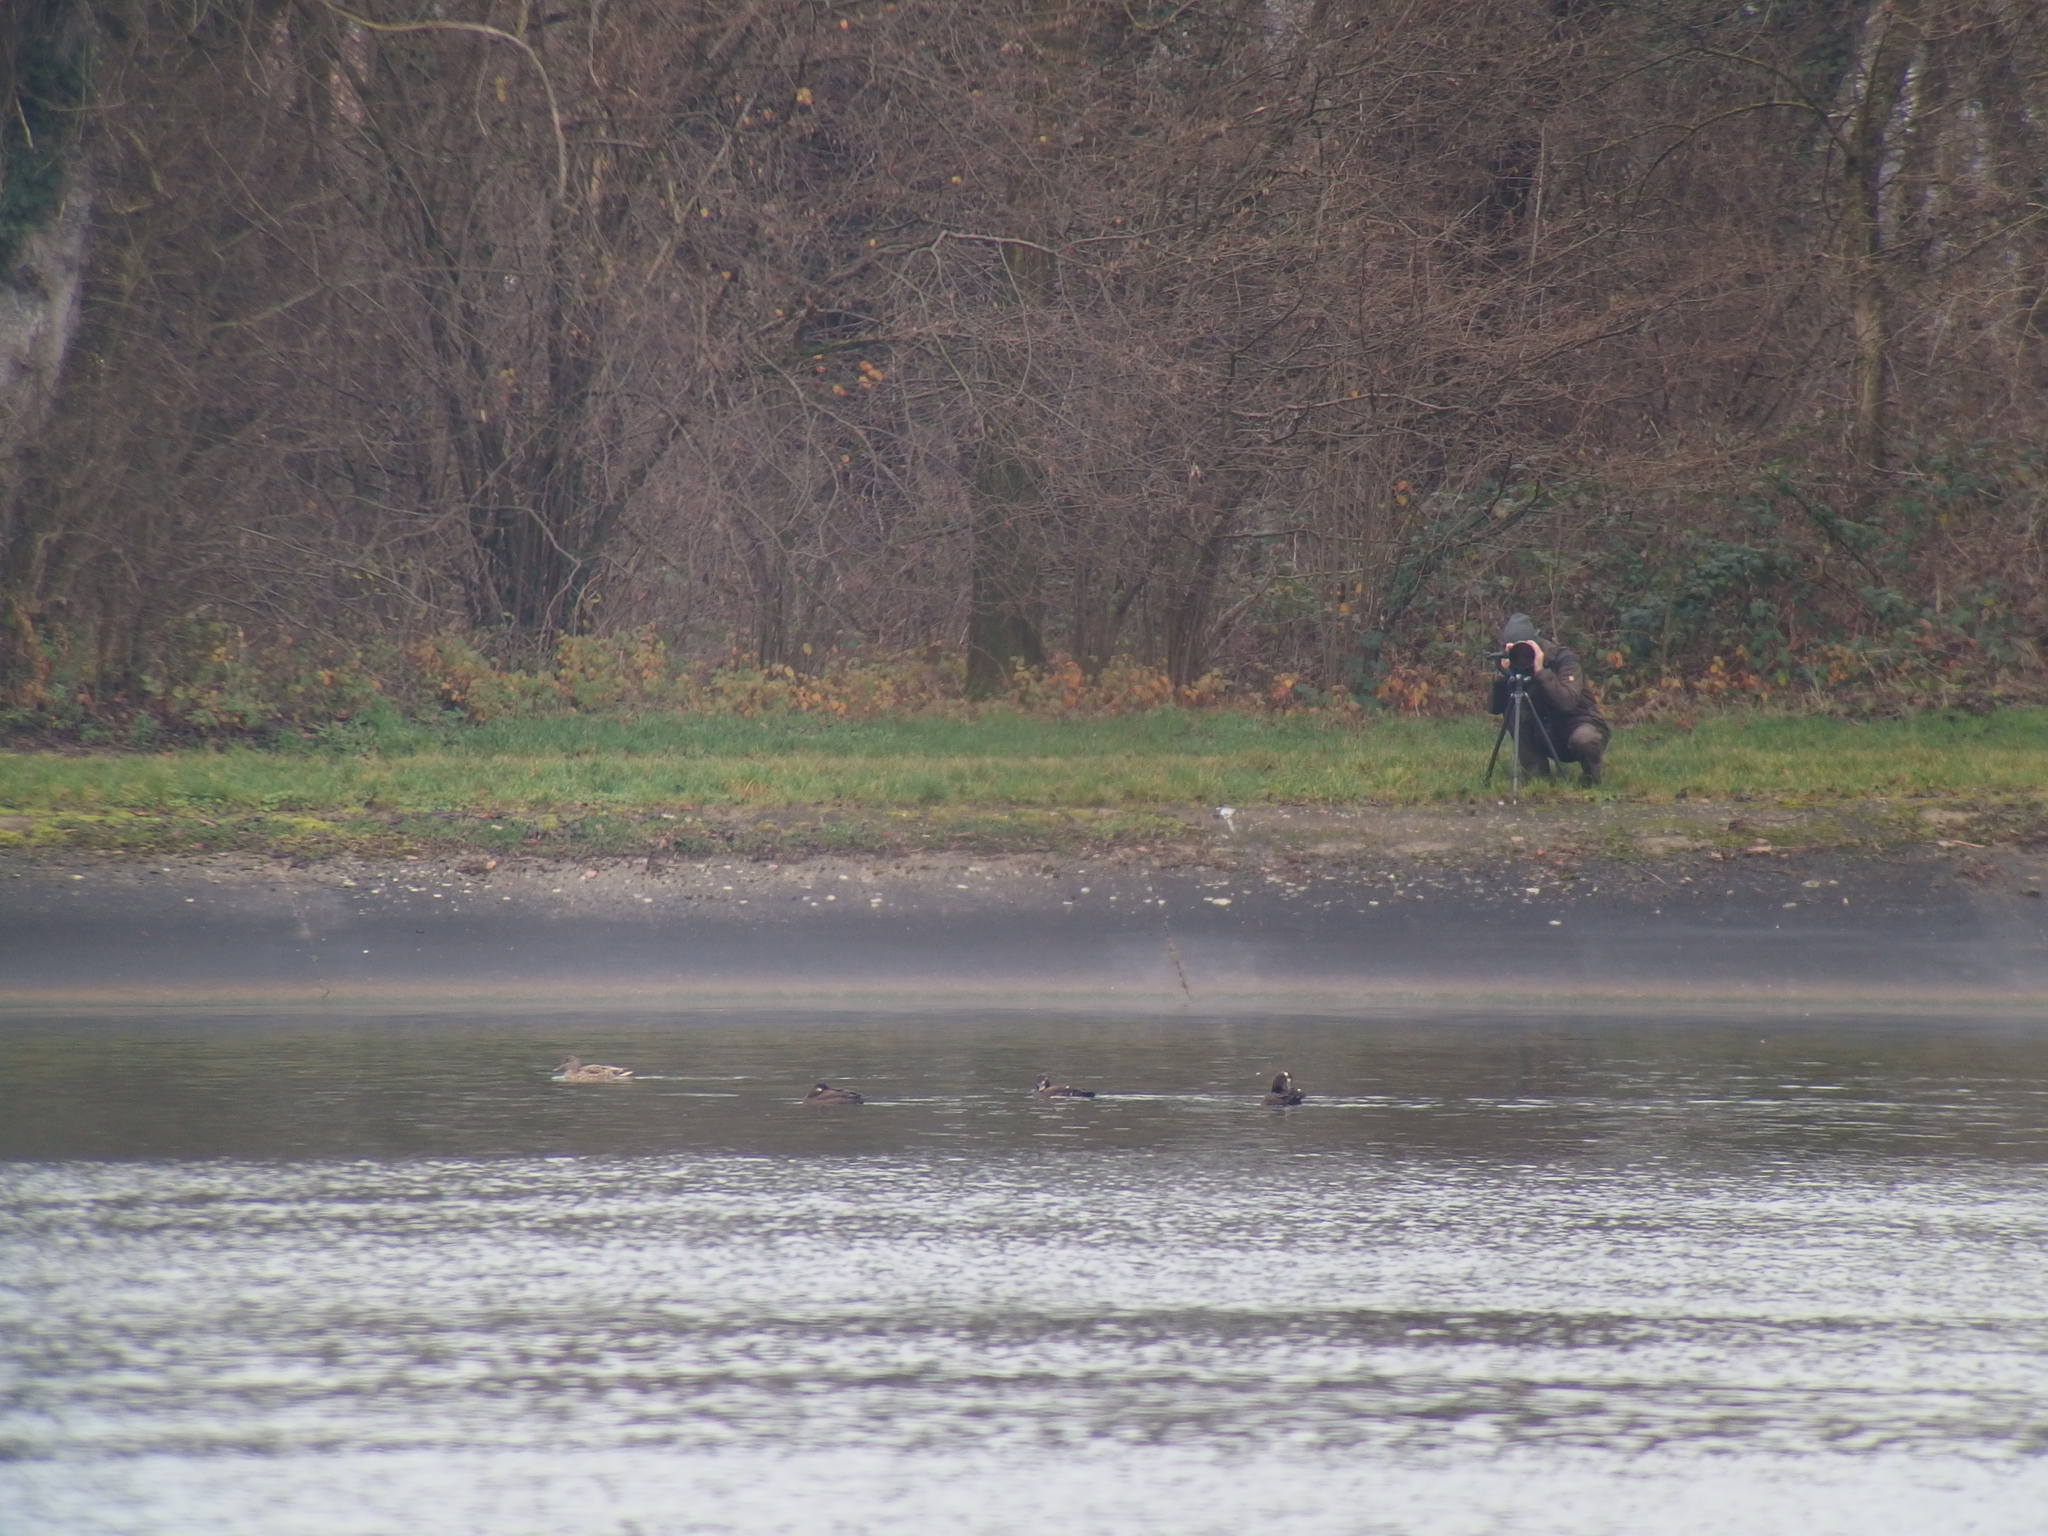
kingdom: Animalia
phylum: Chordata
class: Aves
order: Anseriformes
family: Anatidae
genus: Melanitta
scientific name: Melanitta fusca
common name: Velvet scoter
